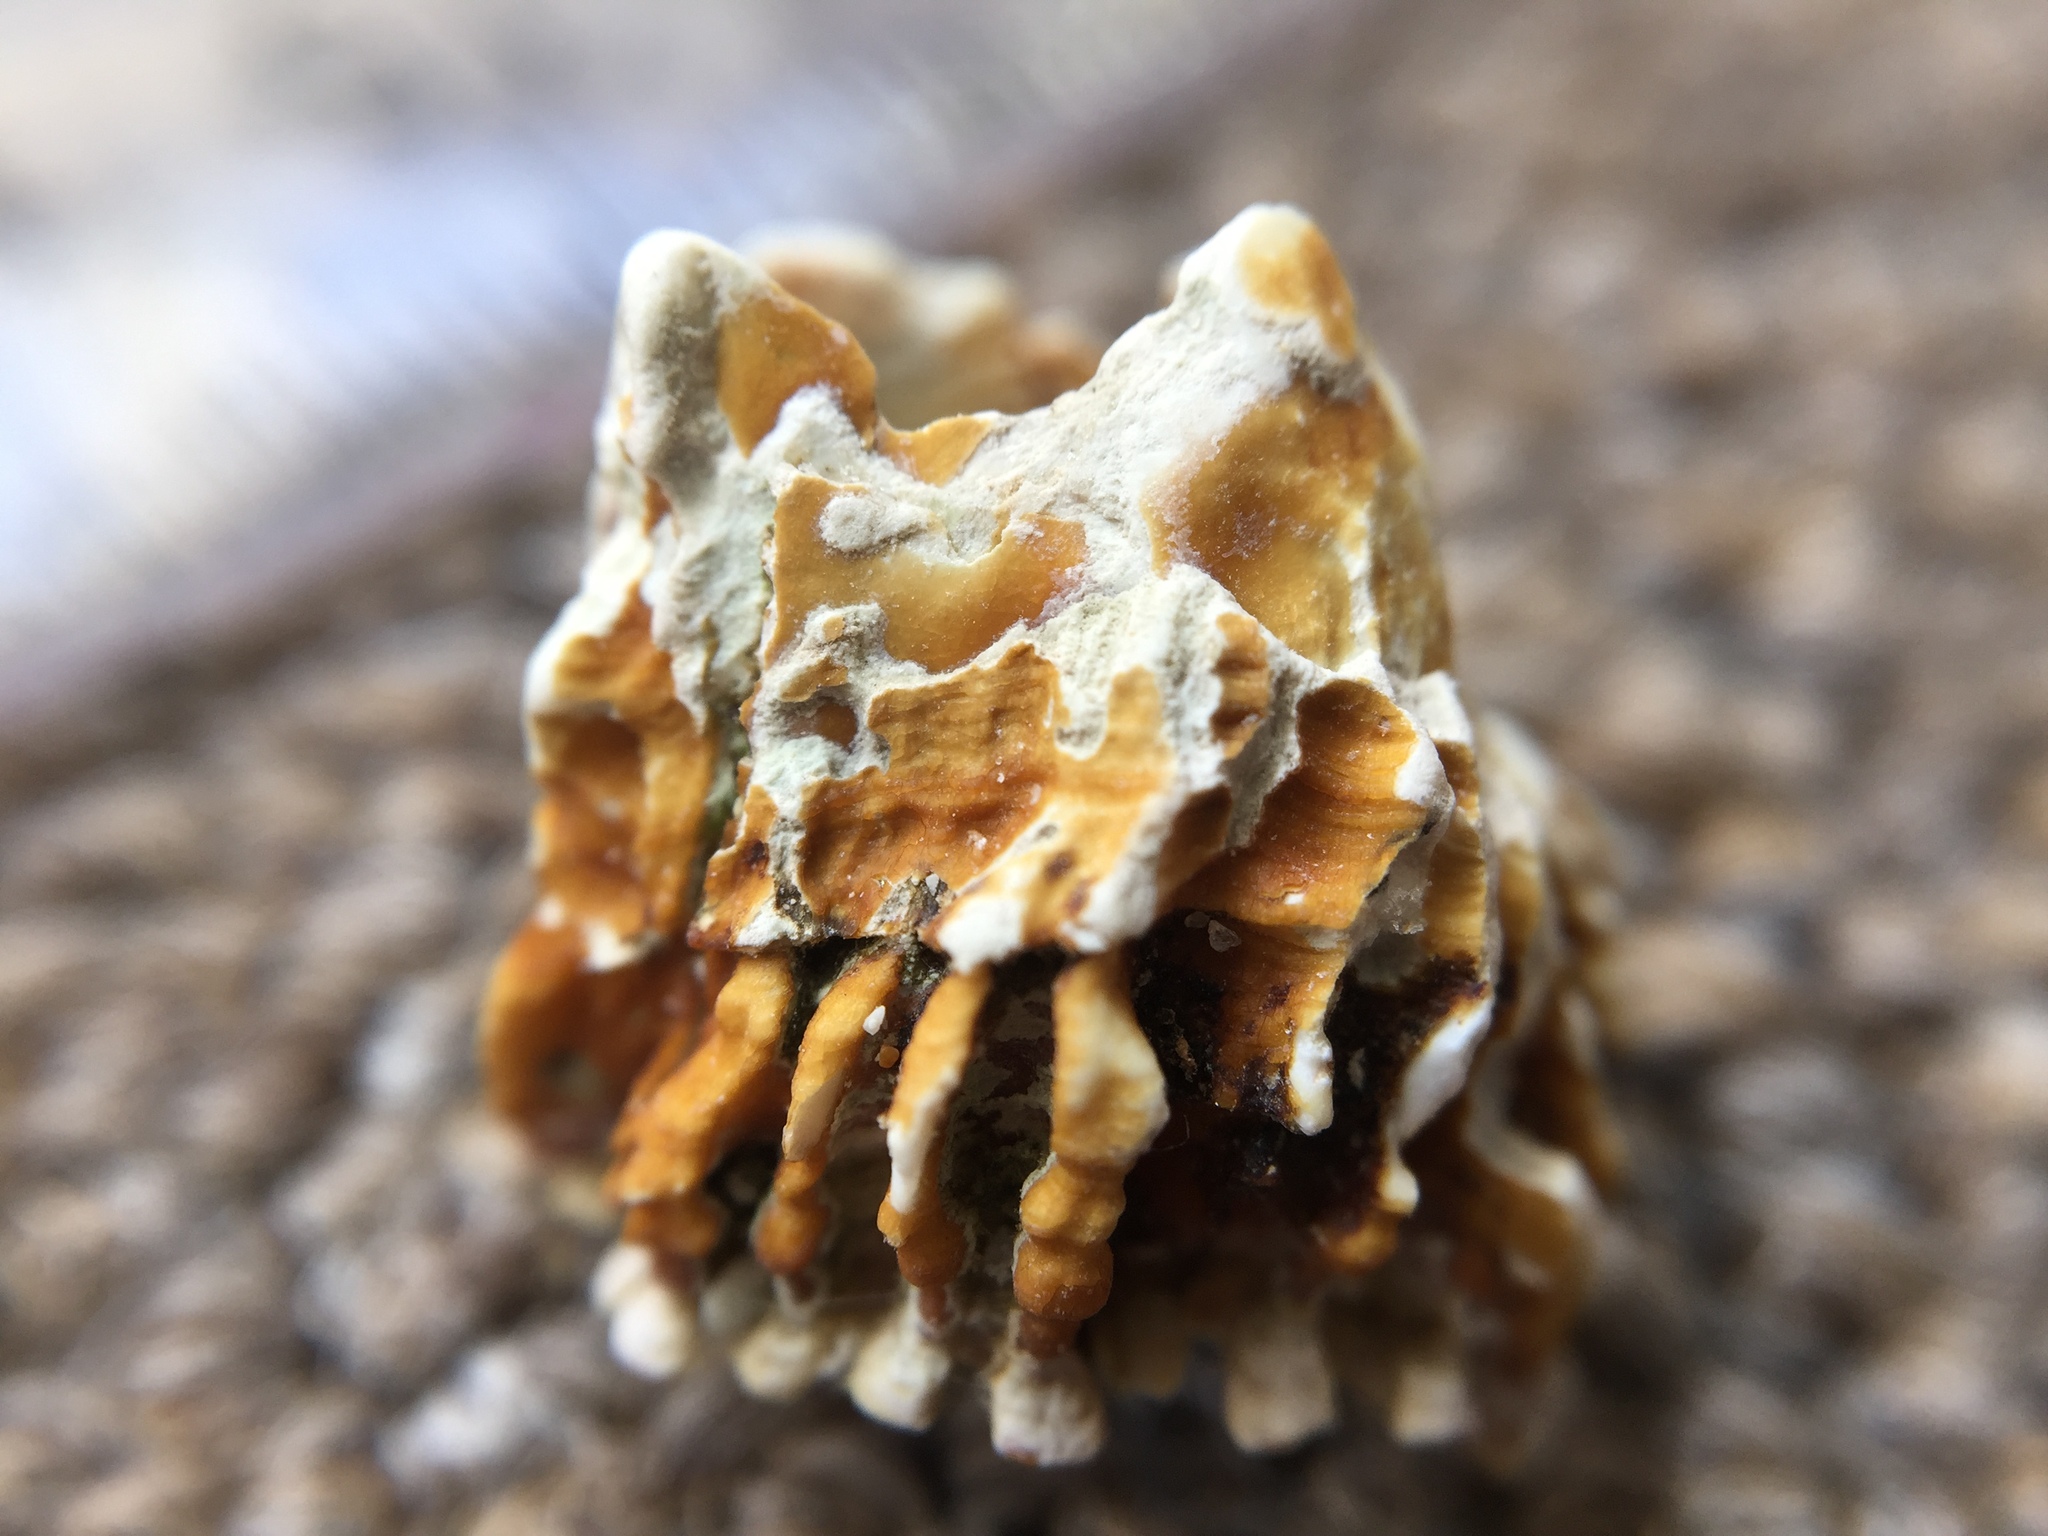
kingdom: Animalia
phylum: Arthropoda
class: Maxillopoda
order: Sessilia
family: Tetraclitidae
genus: Epopella
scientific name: Epopella plicata
